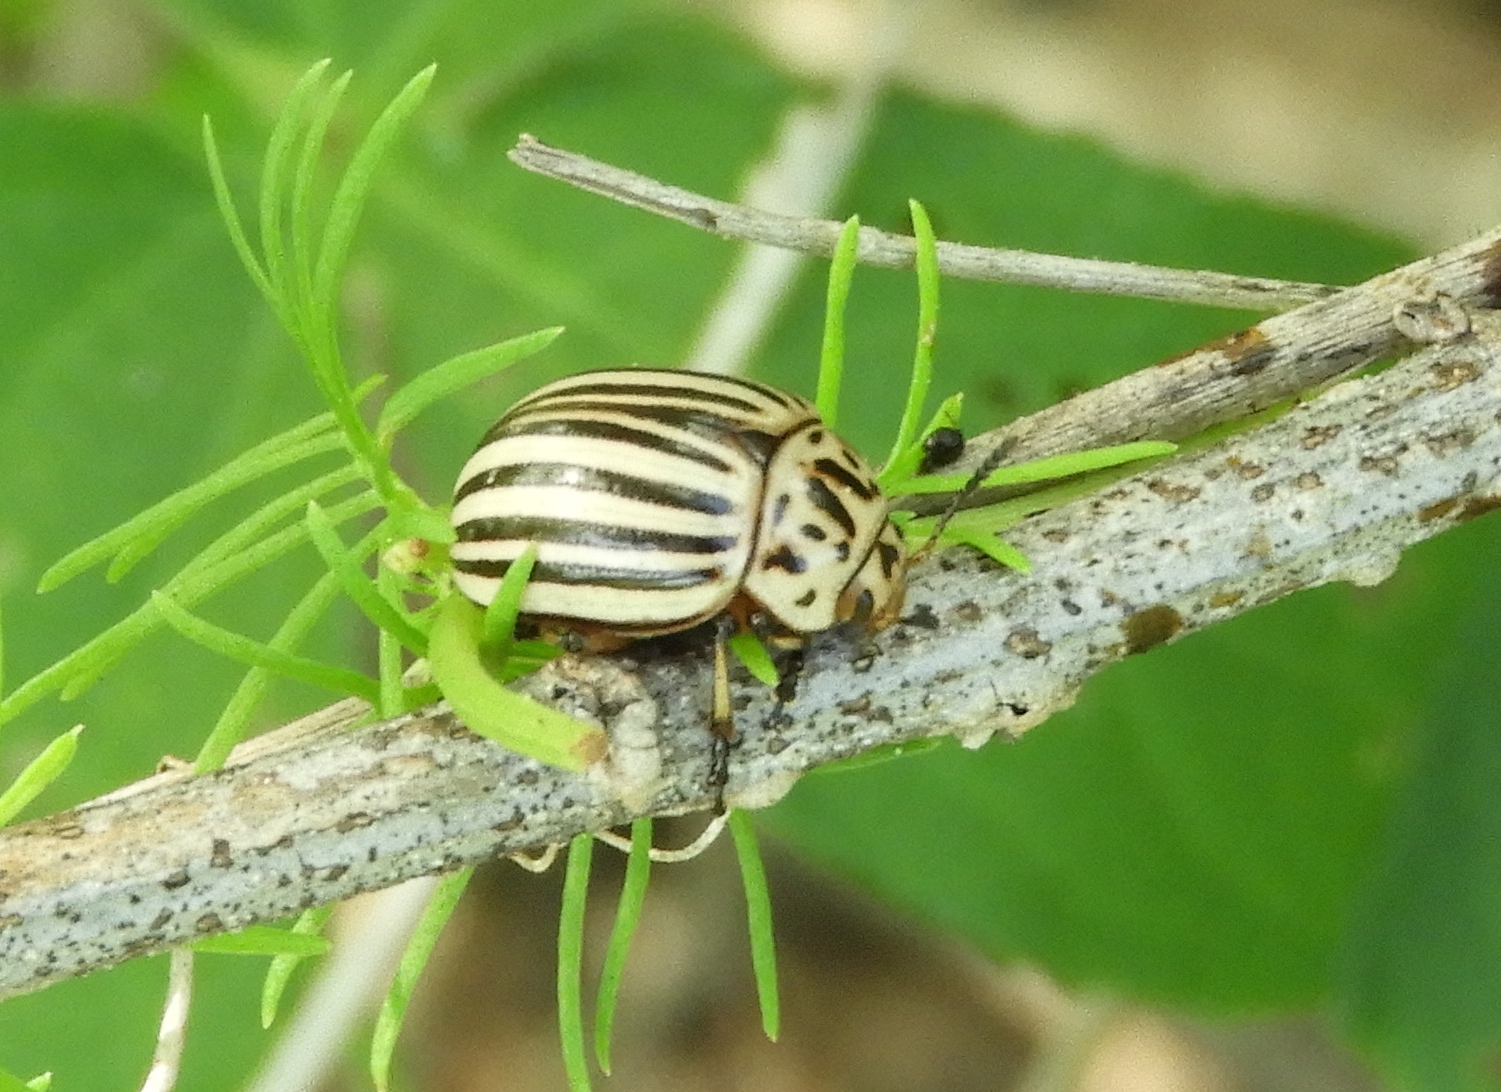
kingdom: Animalia
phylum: Arthropoda
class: Insecta
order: Coleoptera
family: Chrysomelidae
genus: Leptinotarsa
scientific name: Leptinotarsa decemlineata
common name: Colorado potato beetle
